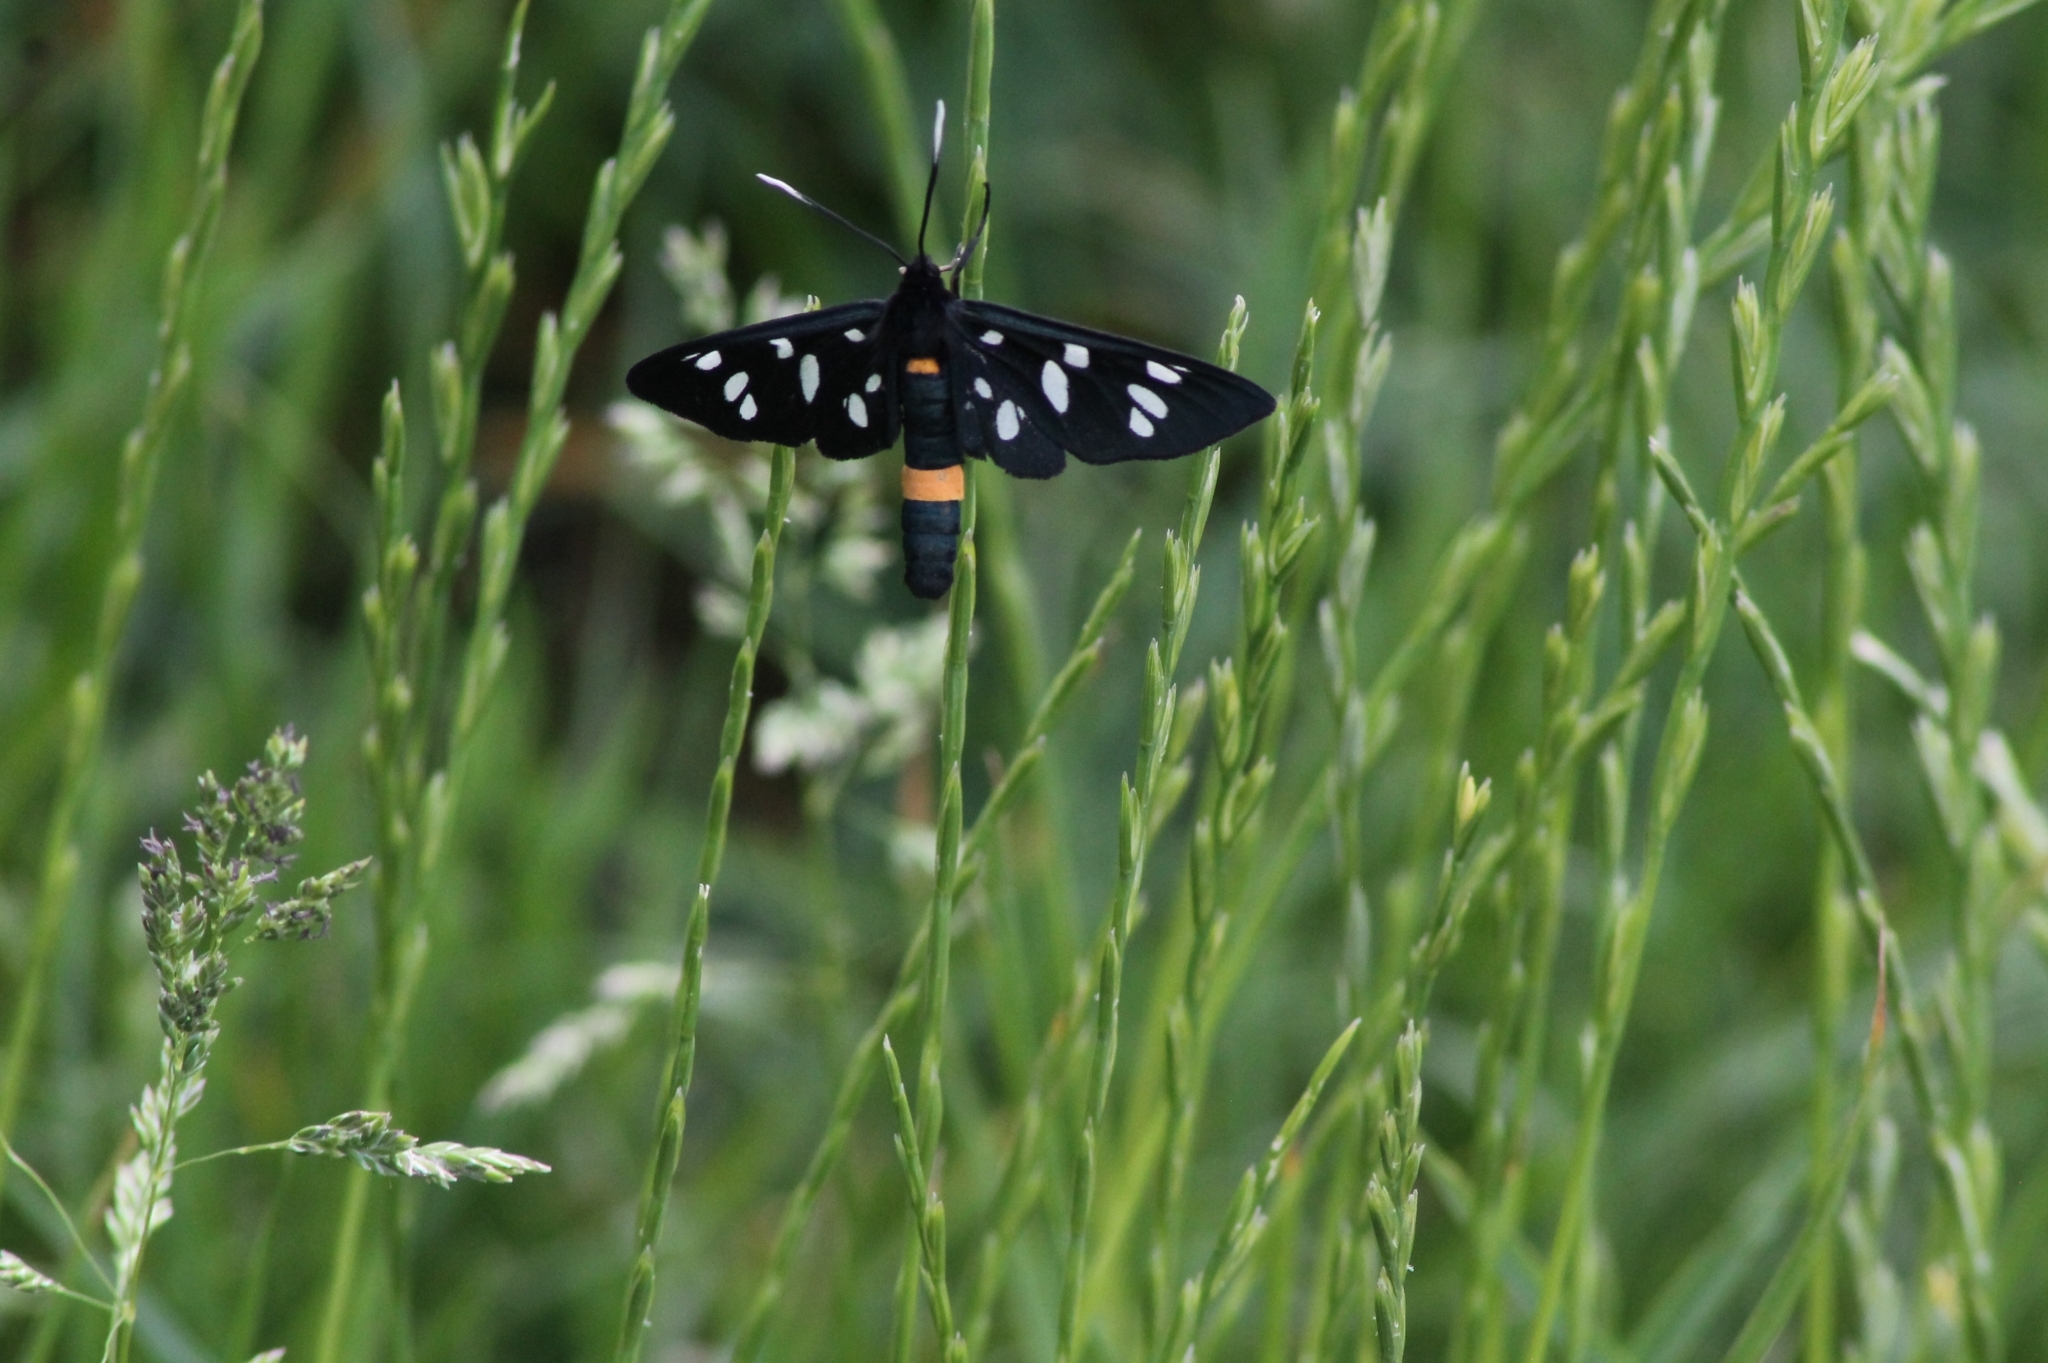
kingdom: Animalia
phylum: Arthropoda
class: Insecta
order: Lepidoptera
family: Erebidae
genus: Amata
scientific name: Amata phegea
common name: Nine-spotted
